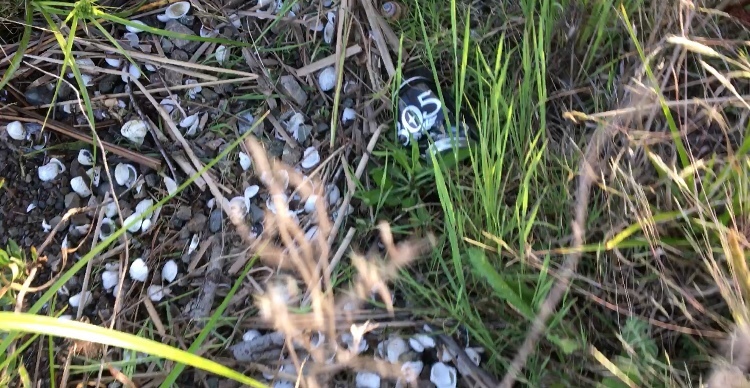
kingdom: Animalia
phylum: Mollusca
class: Bivalvia
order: Venerida
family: Cyrenidae
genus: Corbicula
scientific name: Corbicula fluminea
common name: Asian clam
